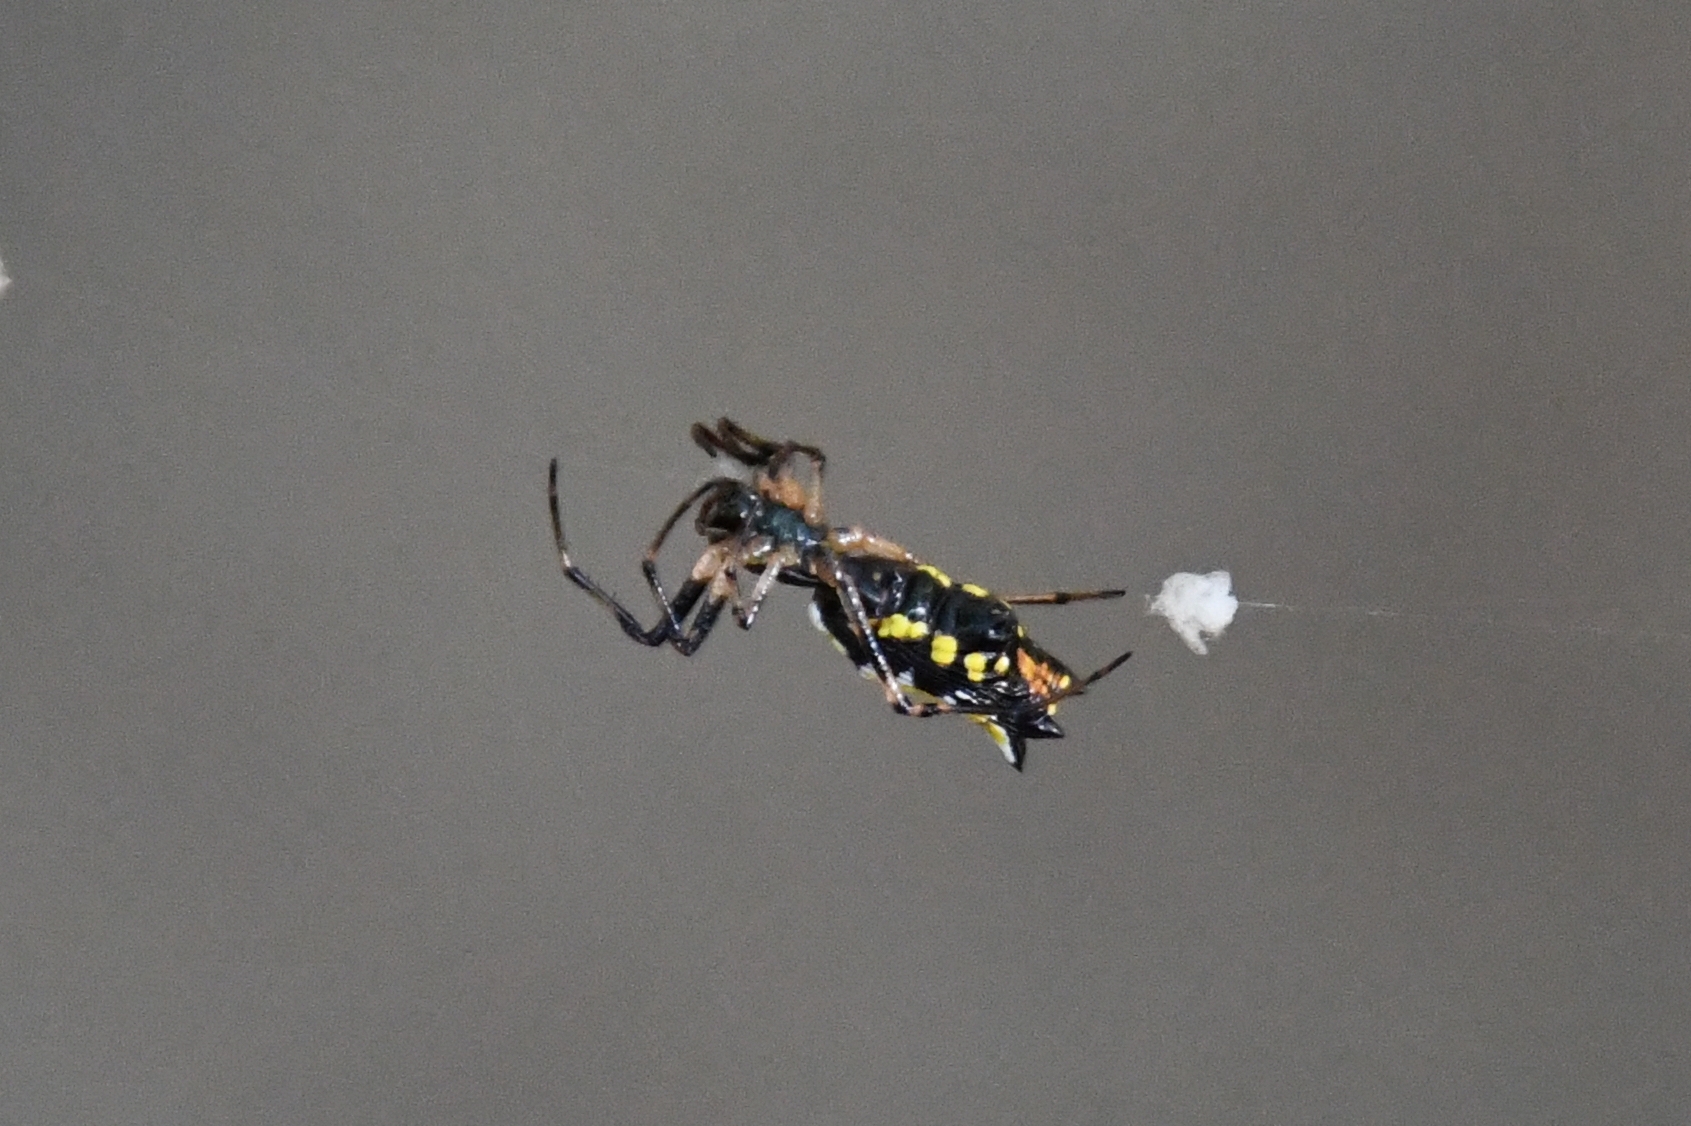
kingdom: Animalia
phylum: Arthropoda
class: Arachnida
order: Araneae
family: Araneidae
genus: Micrathena
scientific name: Micrathena funebris
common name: Orb weavers
